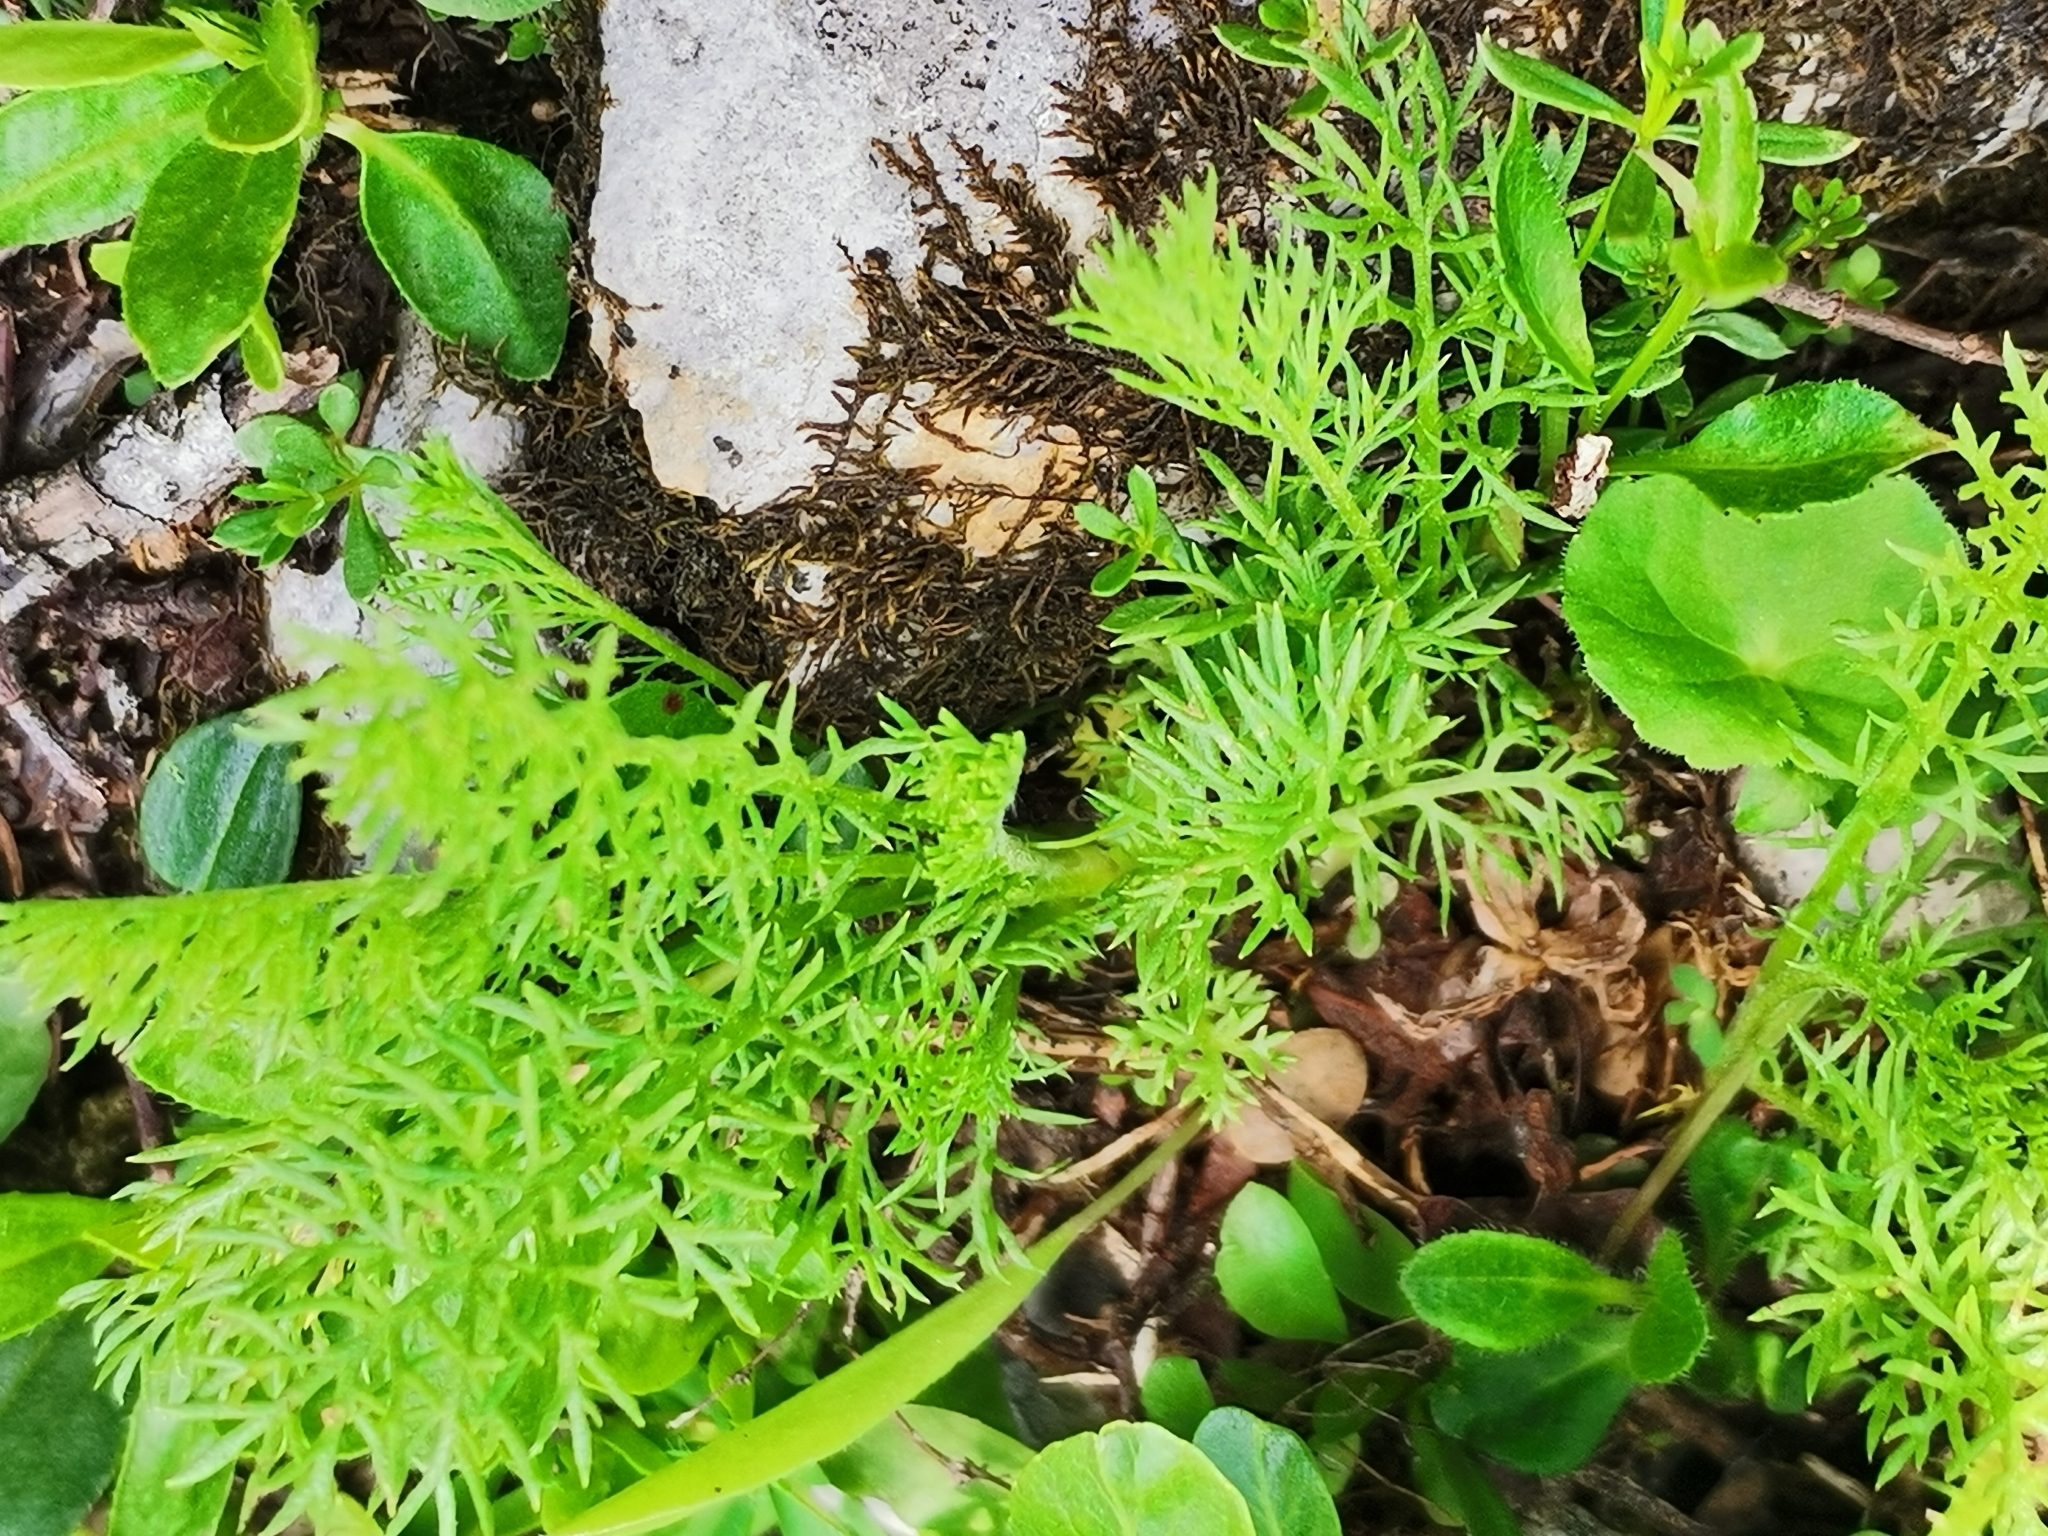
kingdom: Plantae
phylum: Tracheophyta
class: Magnoliopsida
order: Asterales
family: Asteraceae
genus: Achillea
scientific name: Achillea clusiana
